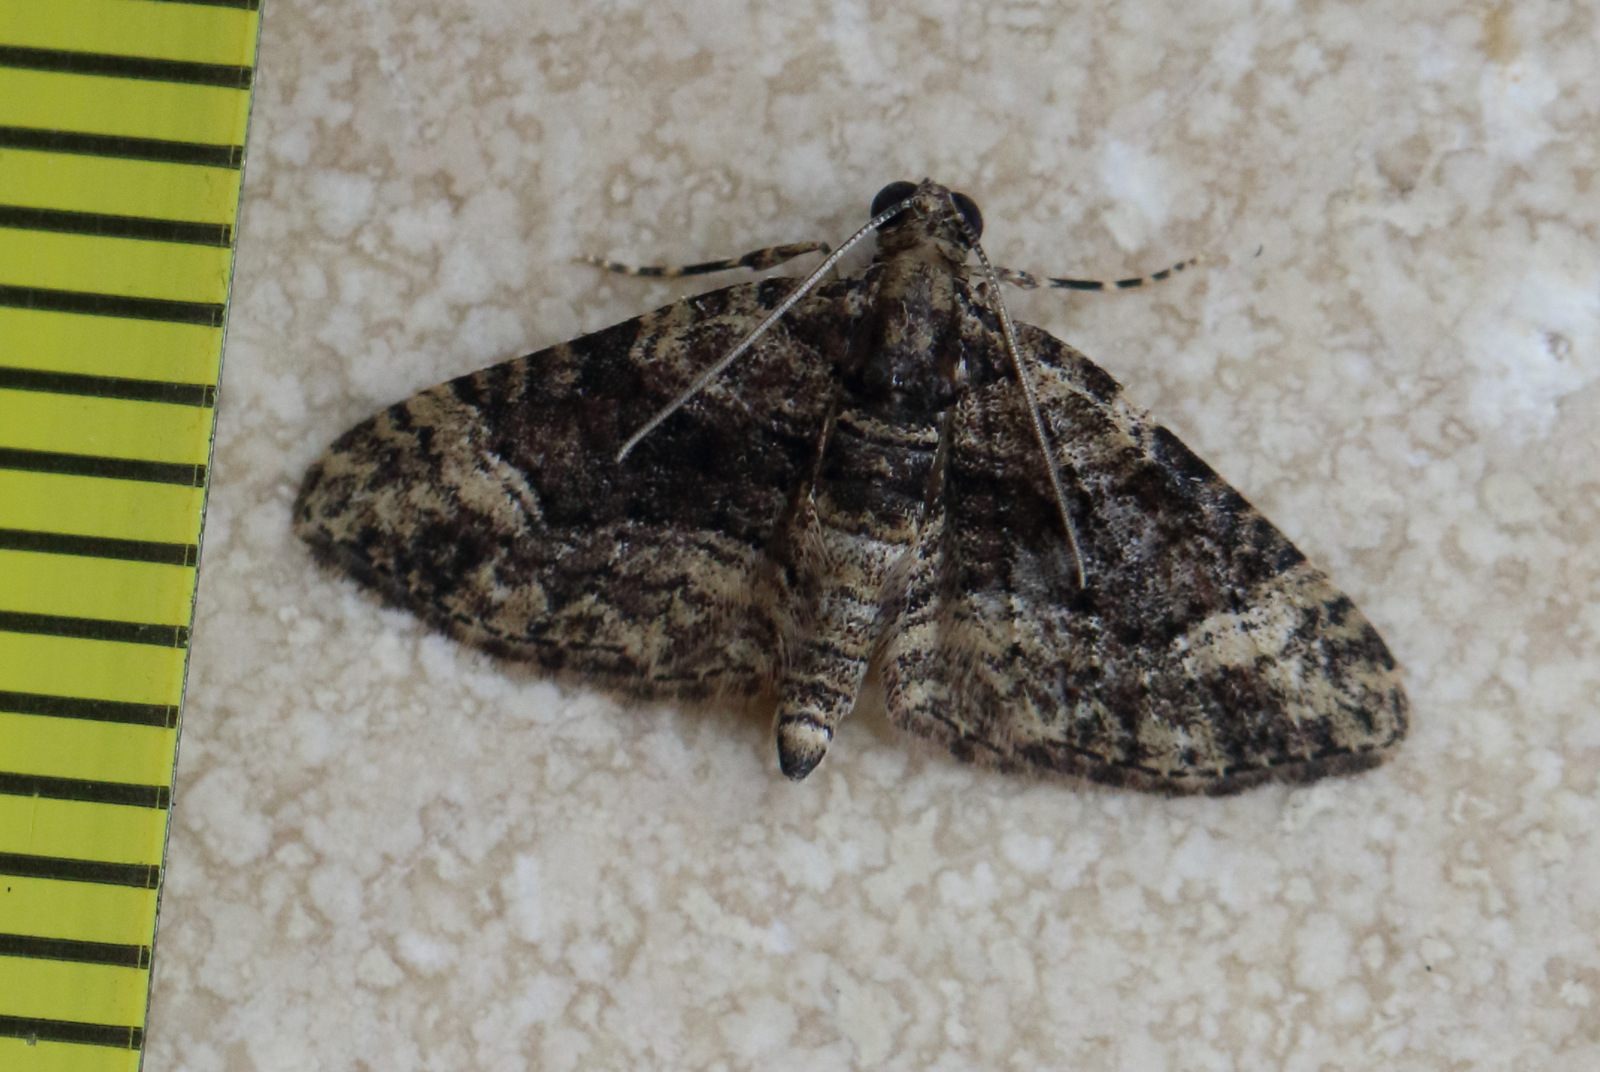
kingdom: Animalia
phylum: Arthropoda
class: Insecta
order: Lepidoptera
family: Geometridae
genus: Epyaxa
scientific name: Epyaxa sodaliata
